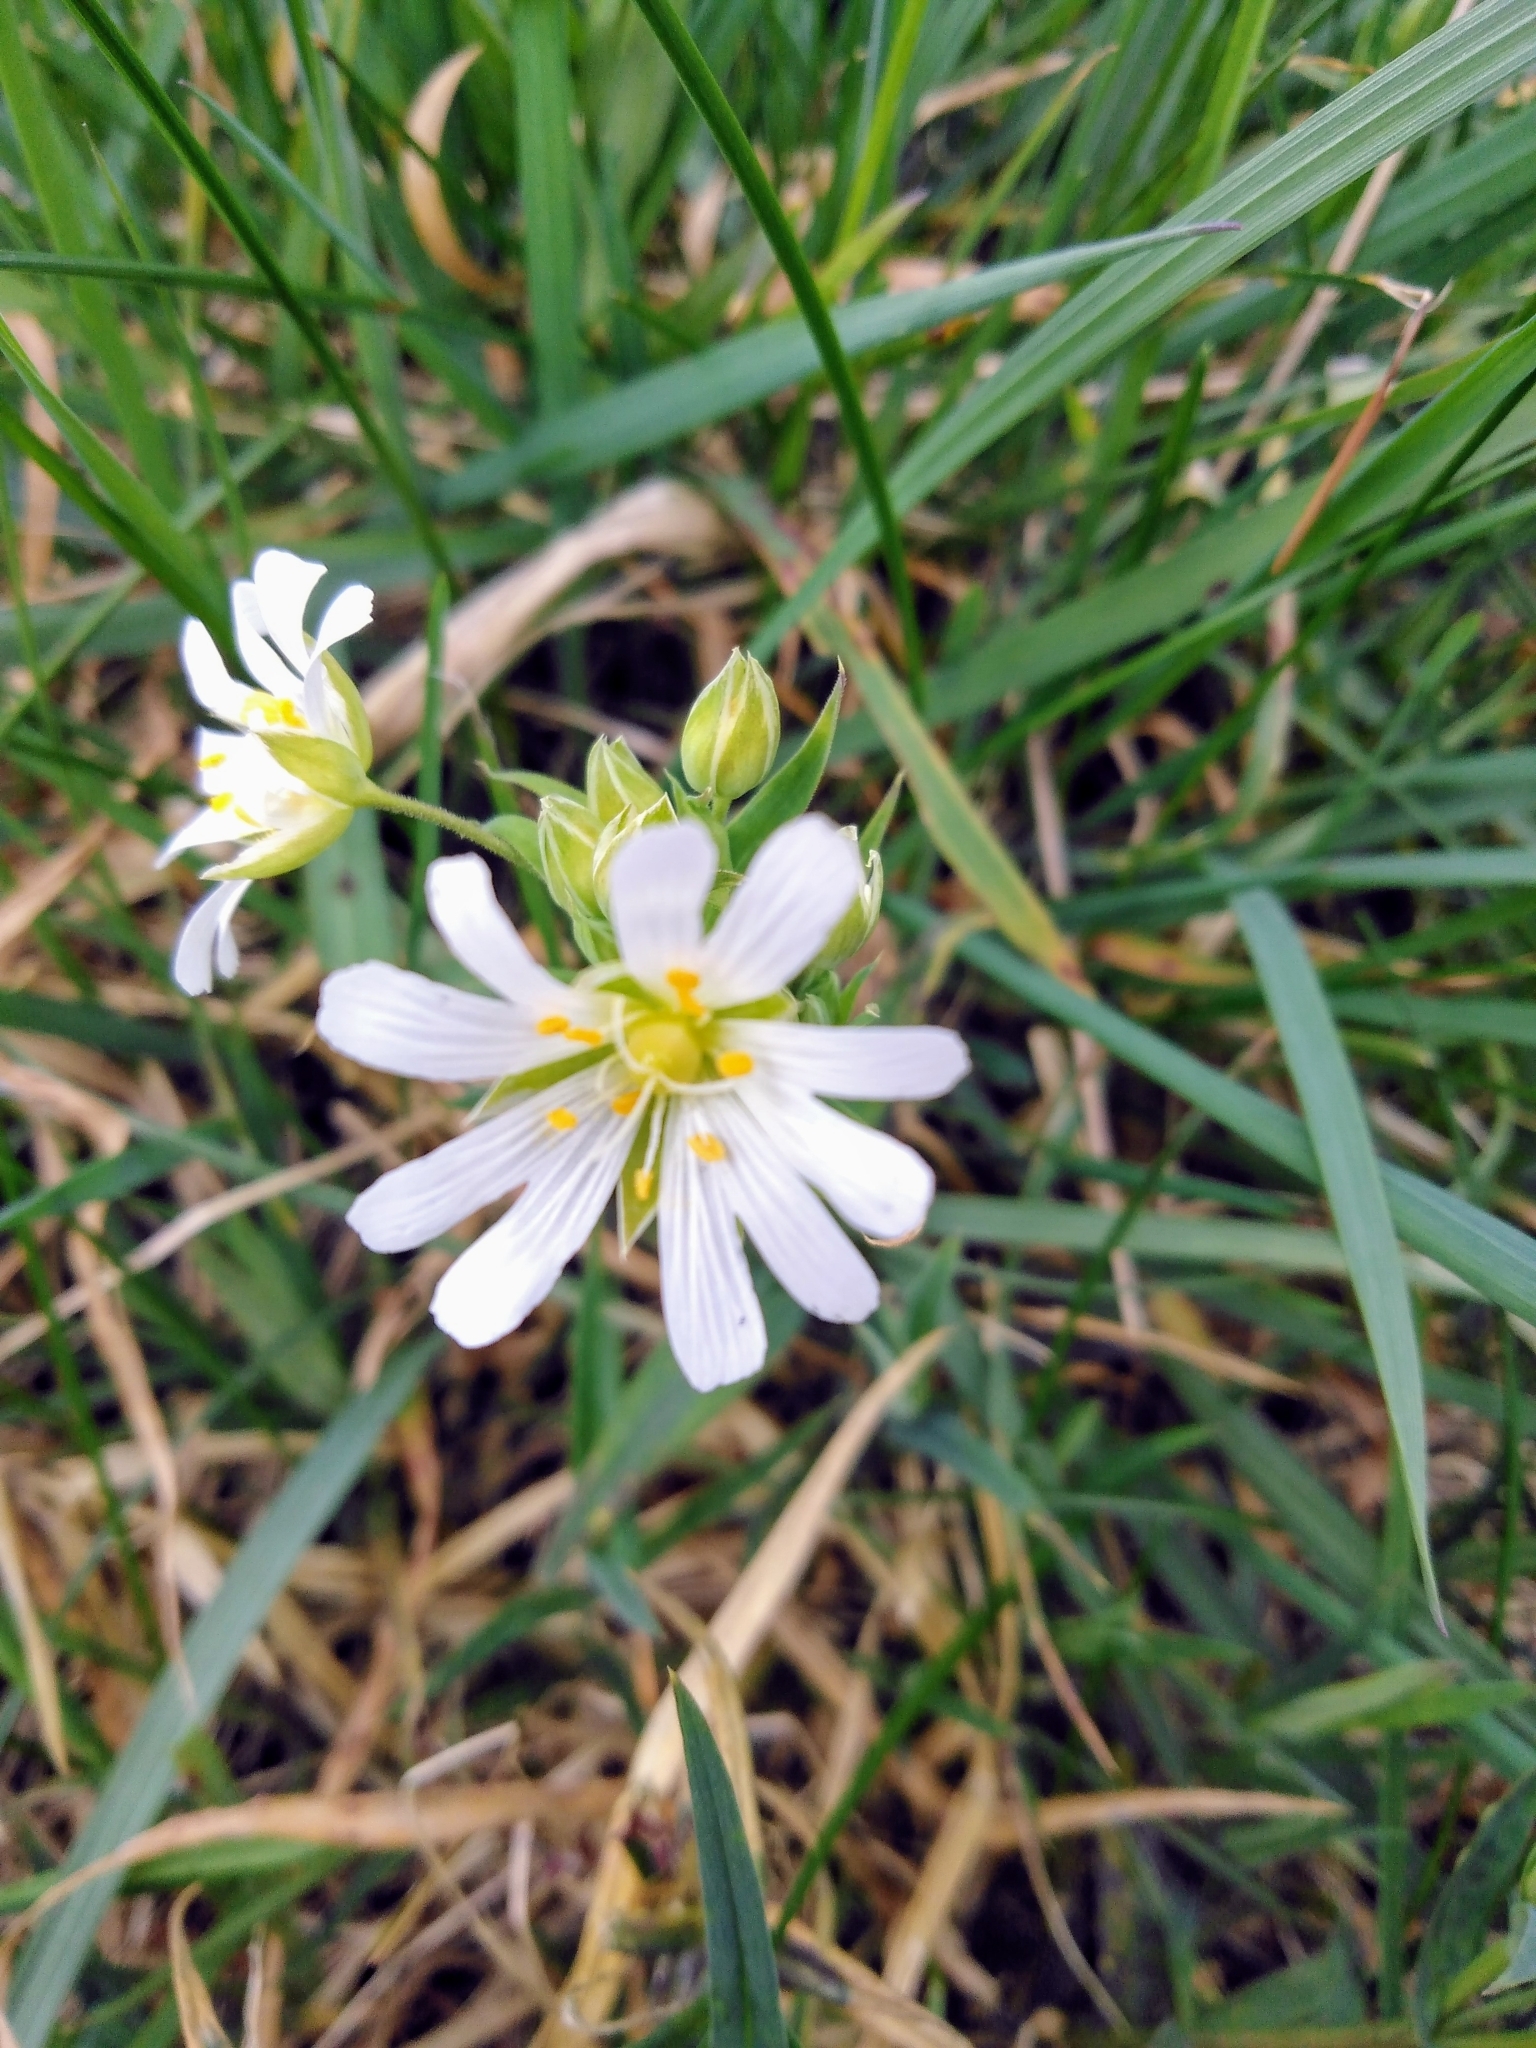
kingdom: Plantae
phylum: Tracheophyta
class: Magnoliopsida
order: Caryophyllales
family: Caryophyllaceae
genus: Rabelera
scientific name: Rabelera holostea
